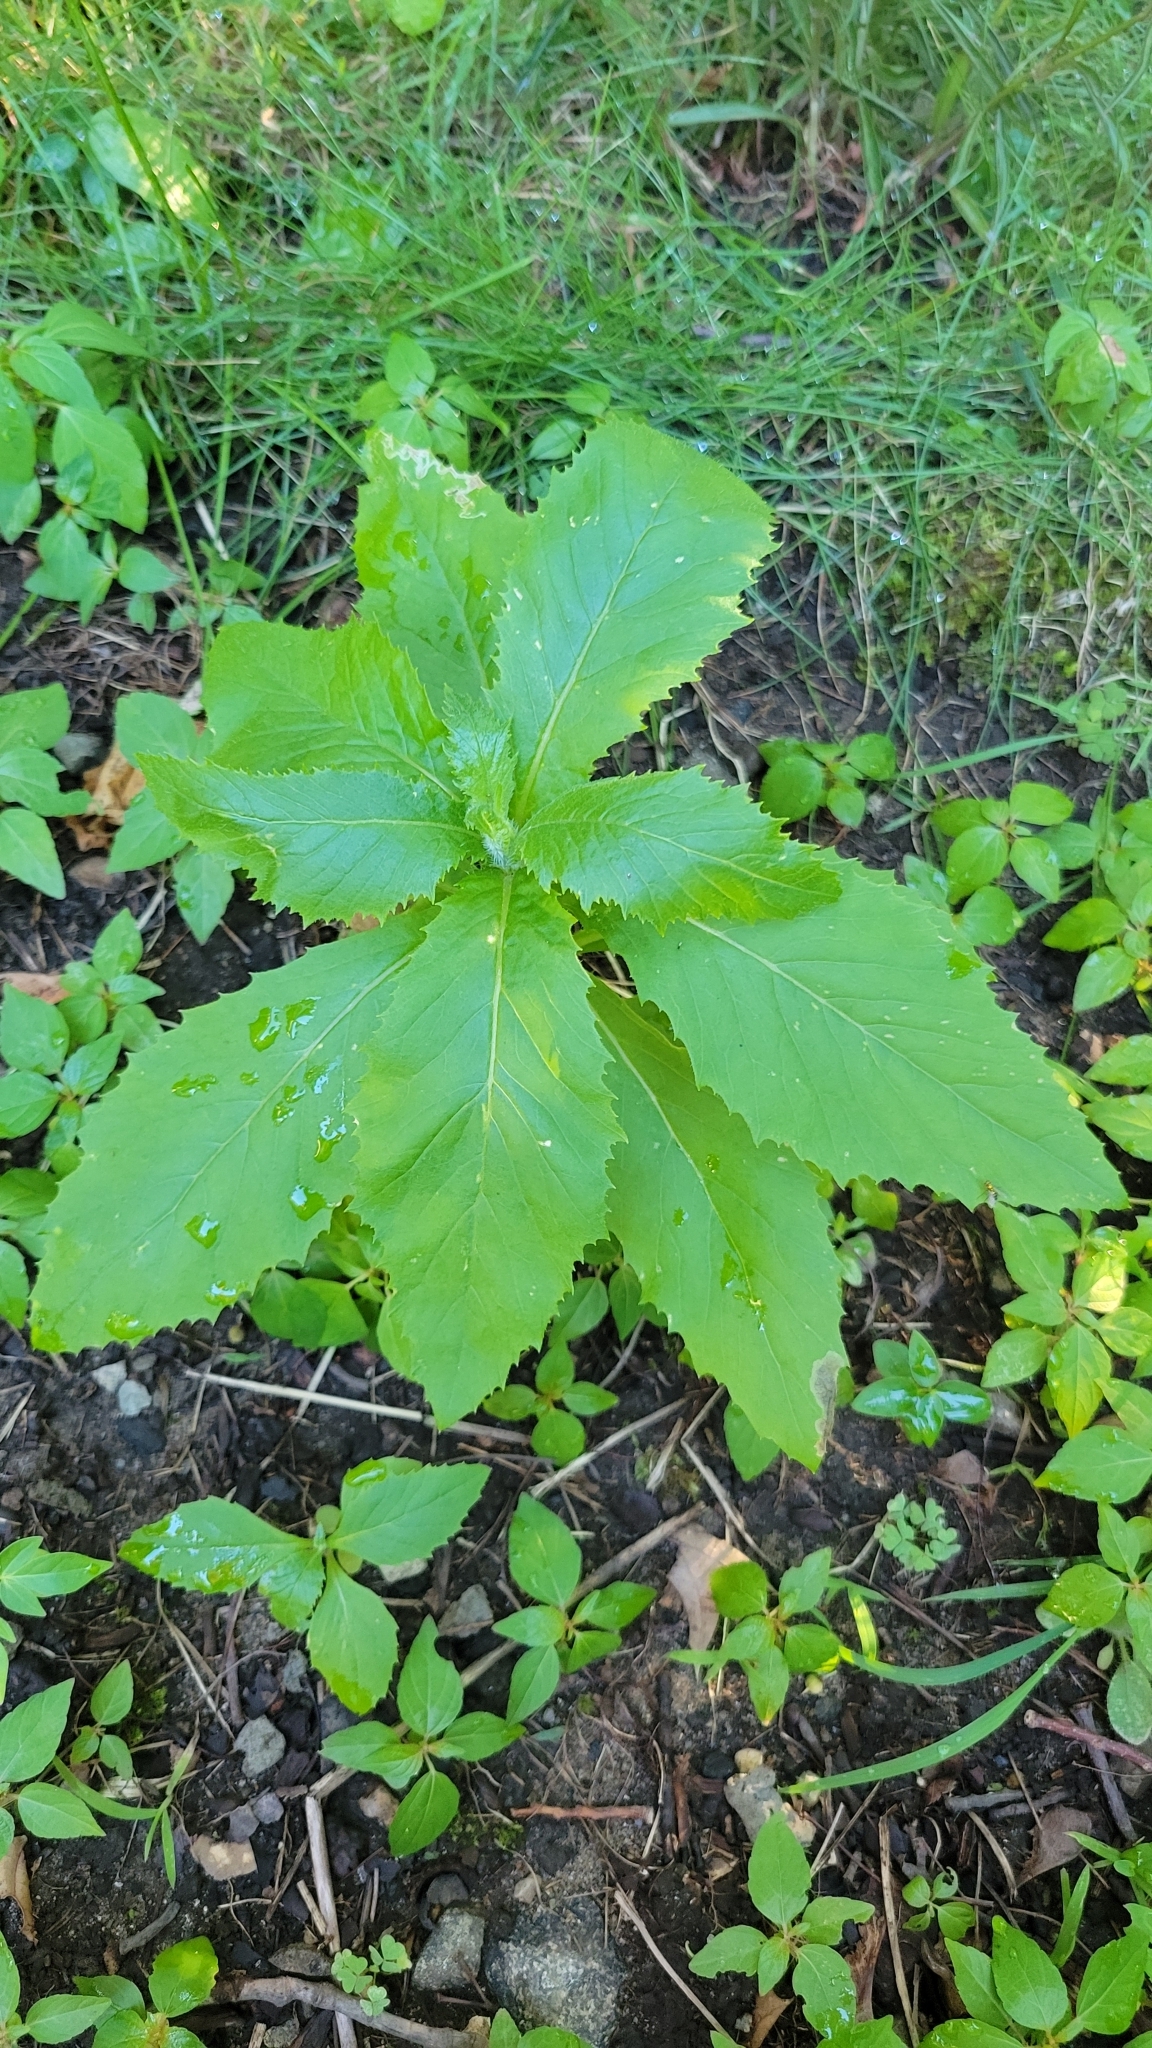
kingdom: Plantae
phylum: Tracheophyta
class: Magnoliopsida
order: Asterales
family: Asteraceae
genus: Erechtites
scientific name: Erechtites hieraciifolius
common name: American burnweed
